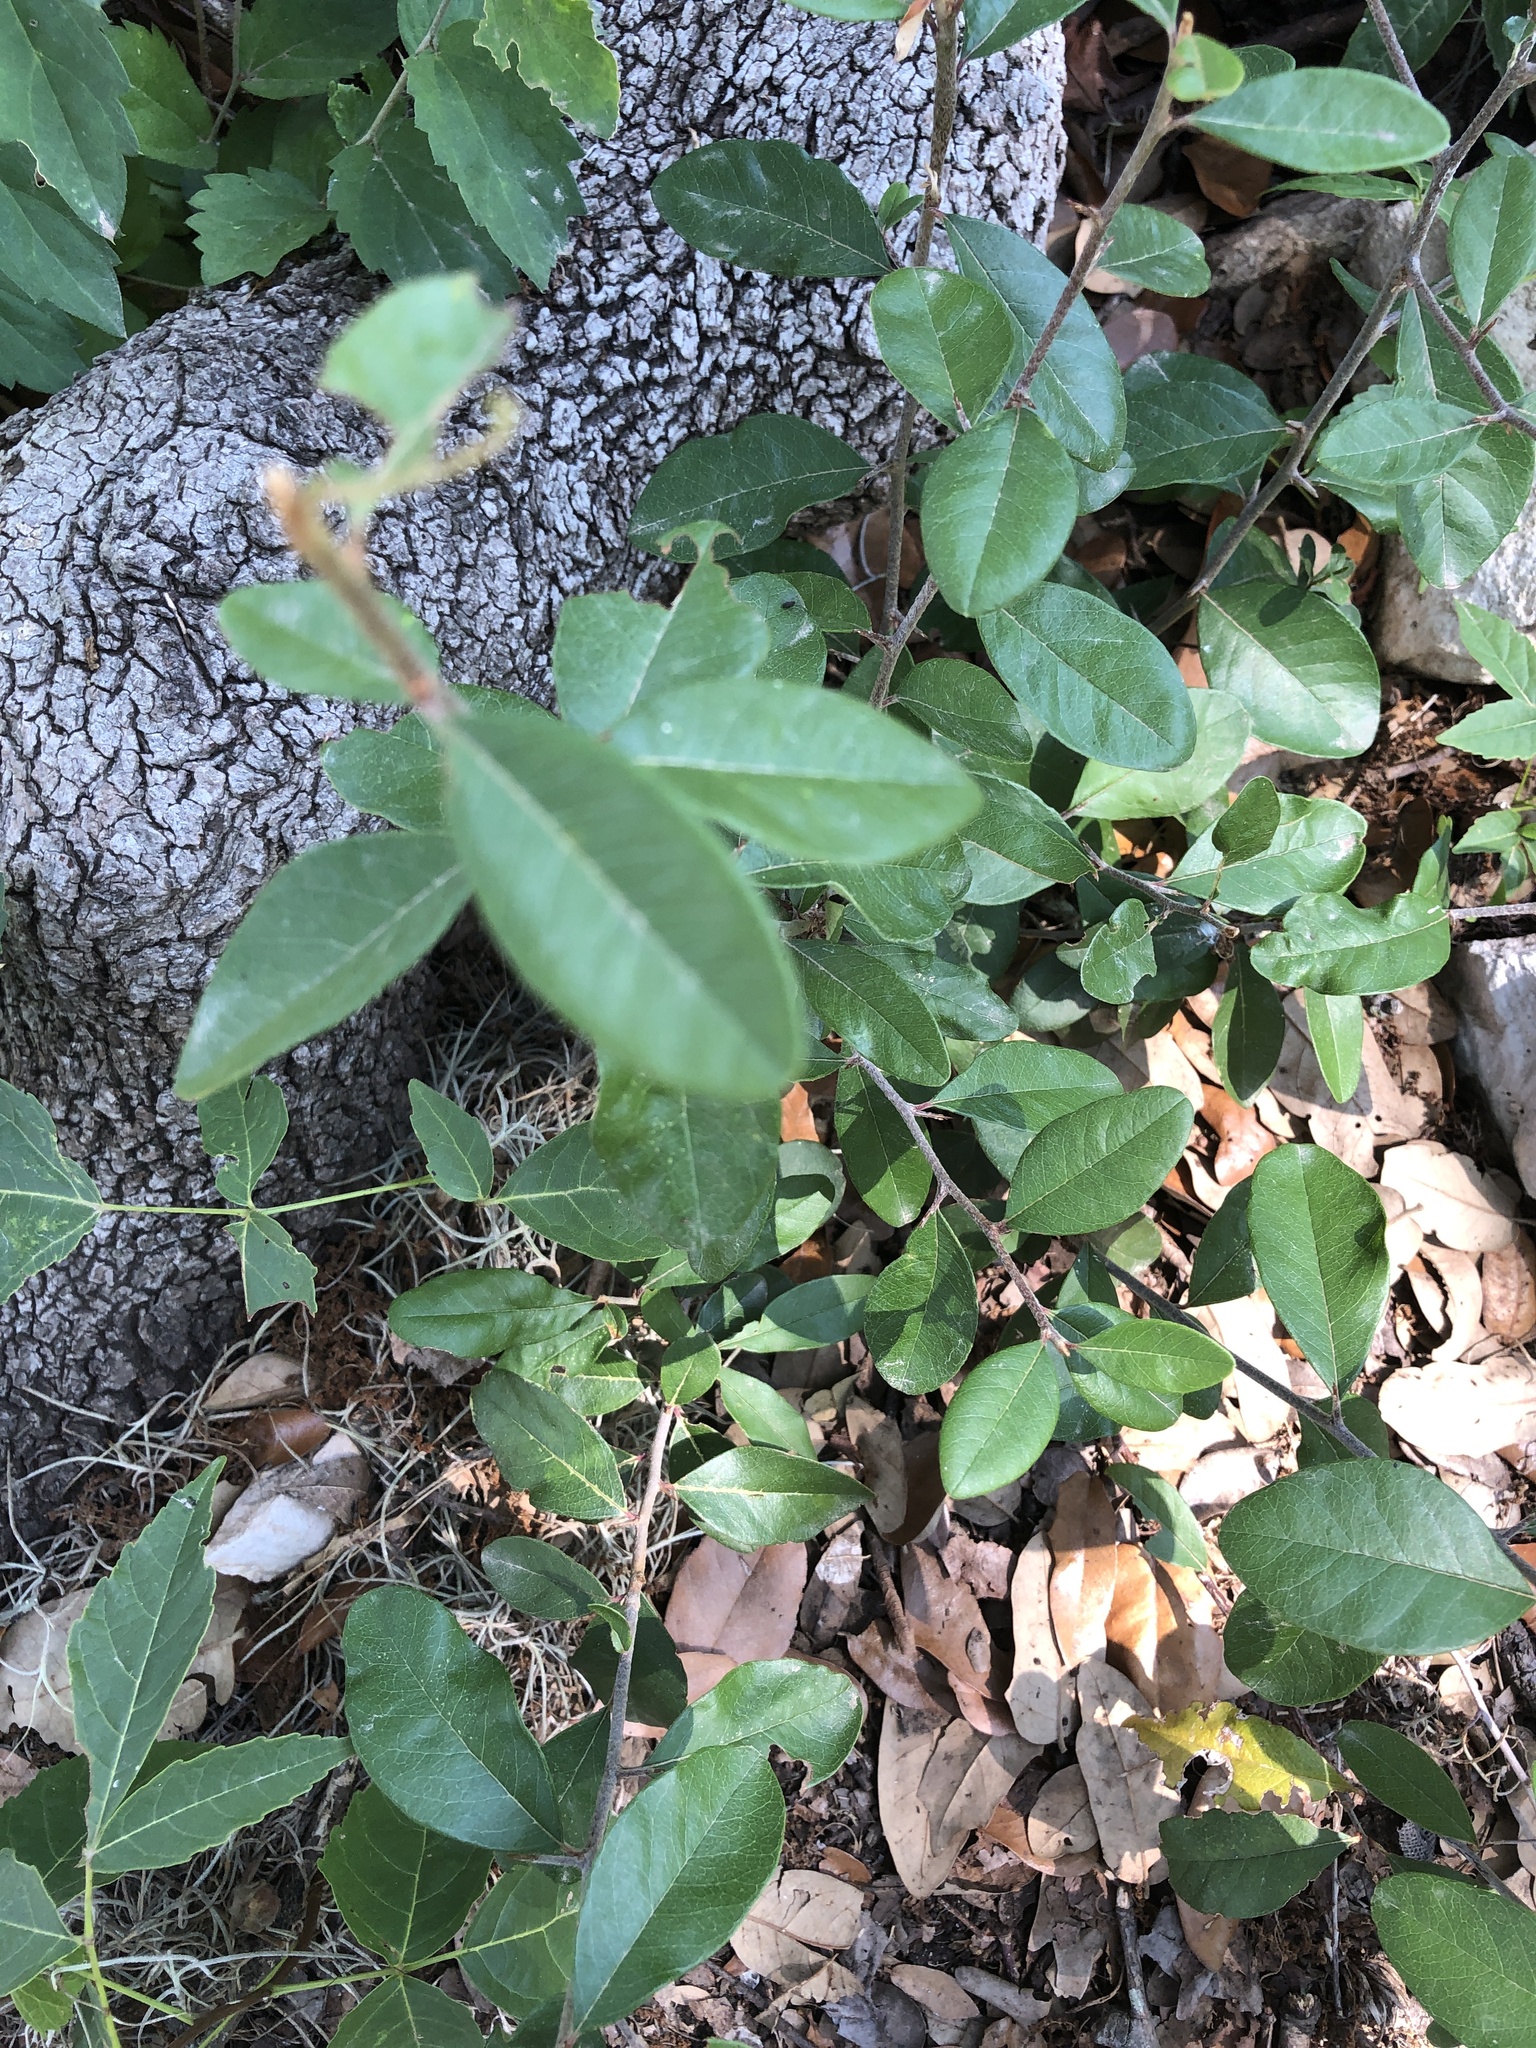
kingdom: Plantae
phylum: Tracheophyta
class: Magnoliopsida
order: Ericales
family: Sapotaceae
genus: Sideroxylon
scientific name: Sideroxylon lanuginosum
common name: Chittamwood
